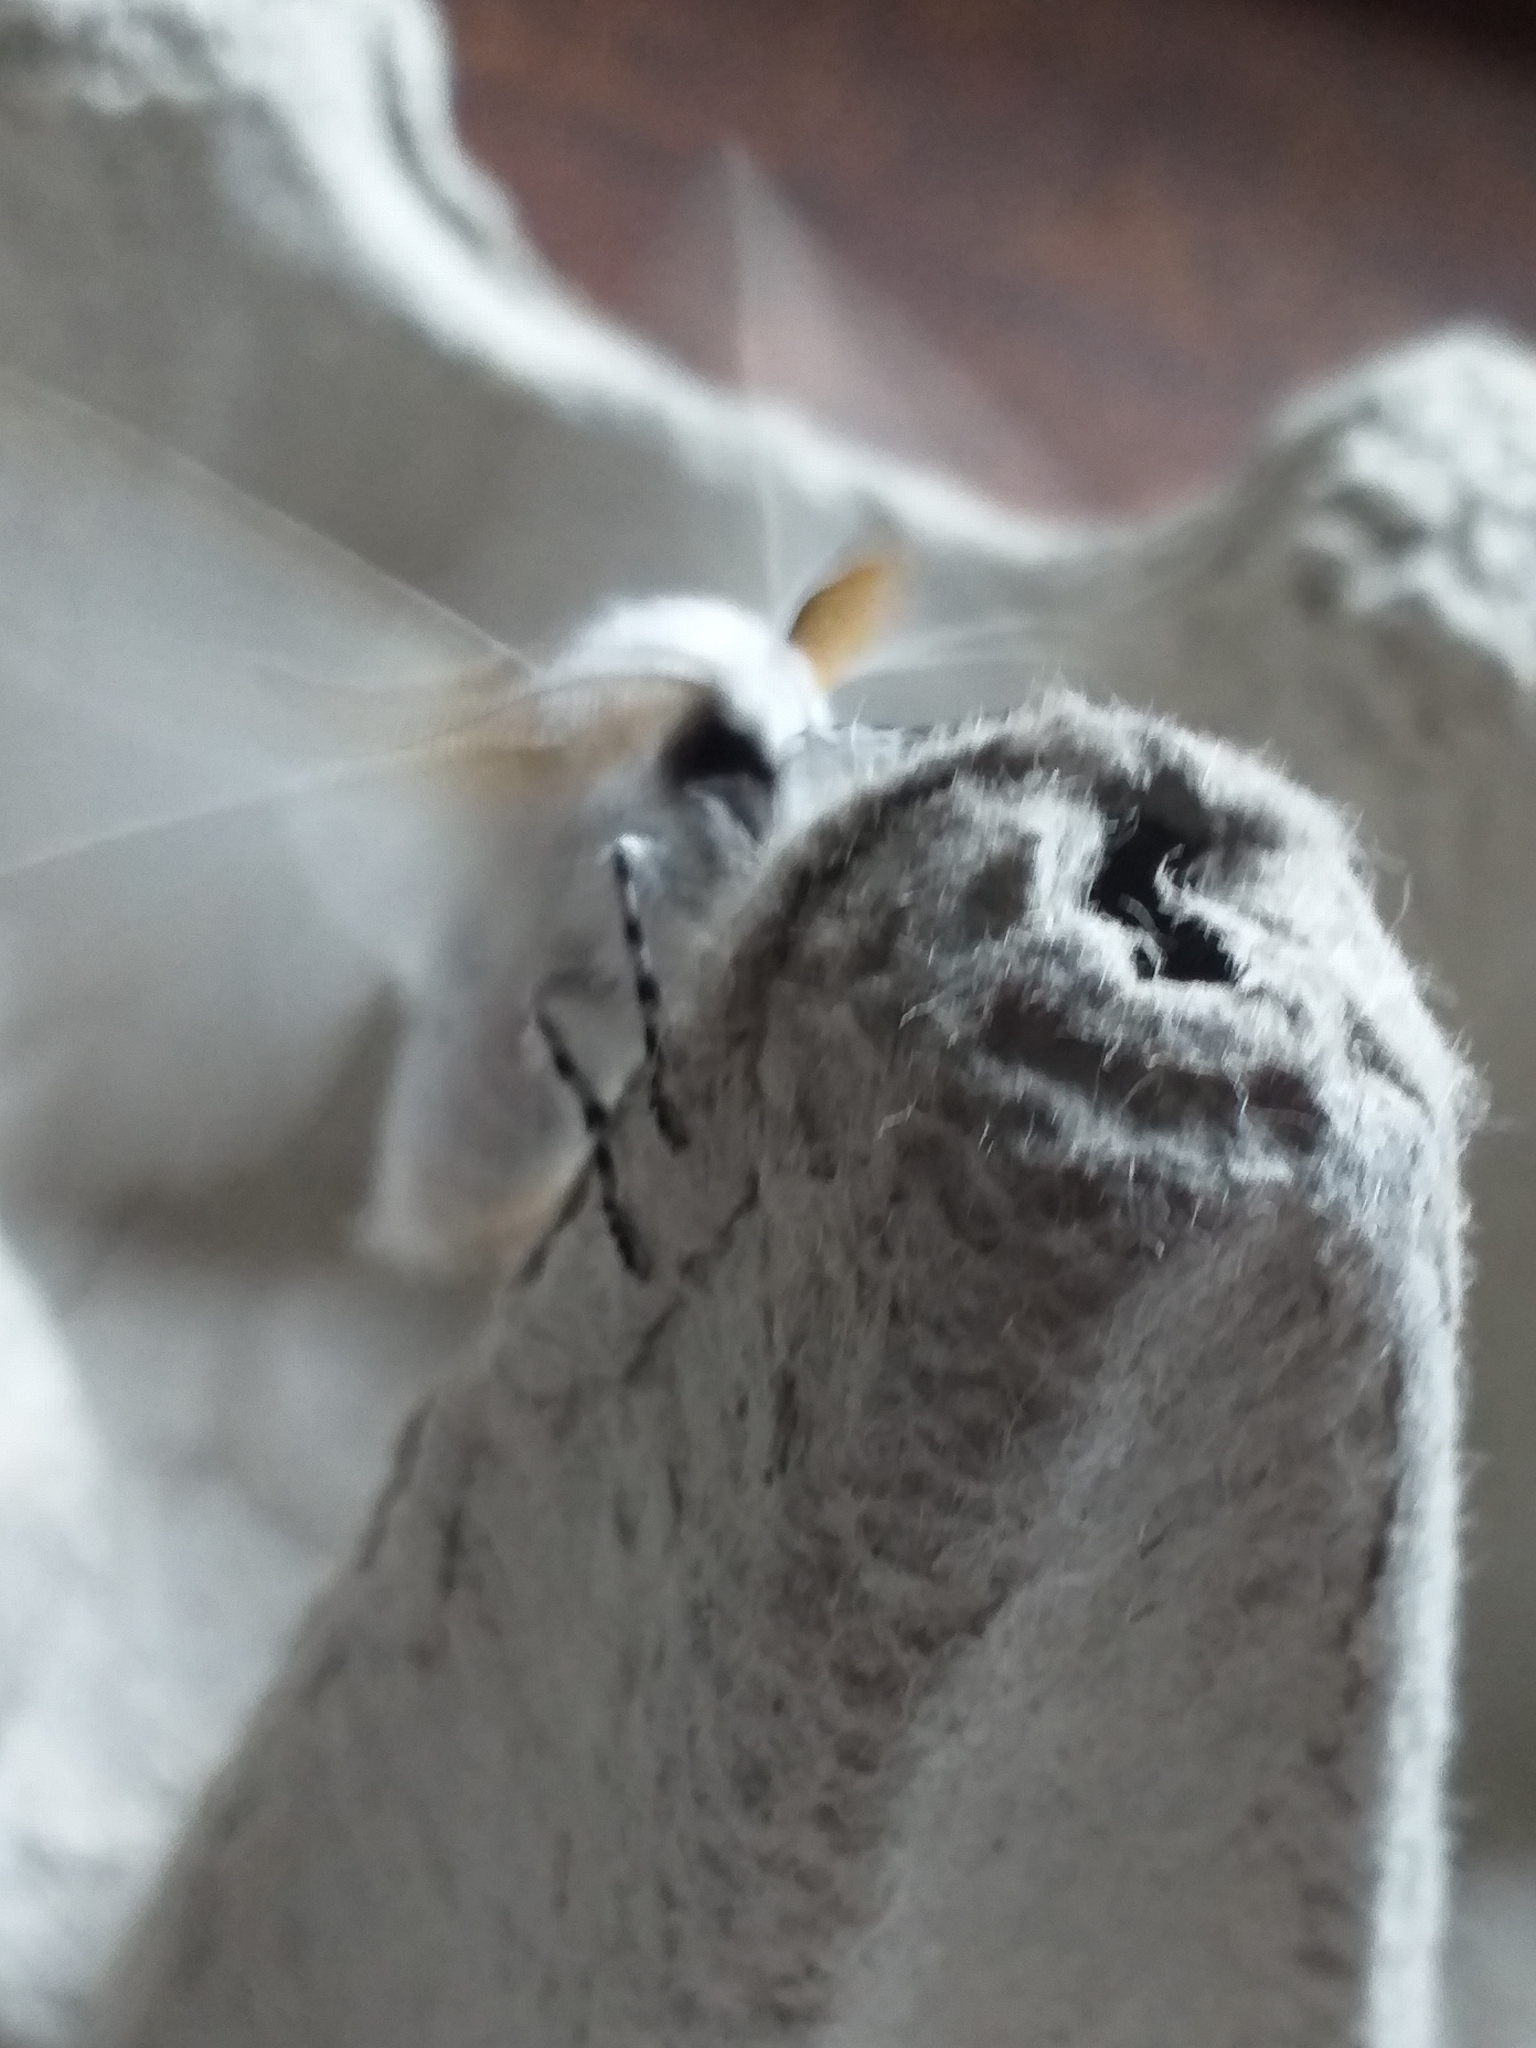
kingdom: Animalia
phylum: Arthropoda
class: Insecta
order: Lepidoptera
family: Erebidae
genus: Leucoma
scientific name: Leucoma salicis
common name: White satin moth
